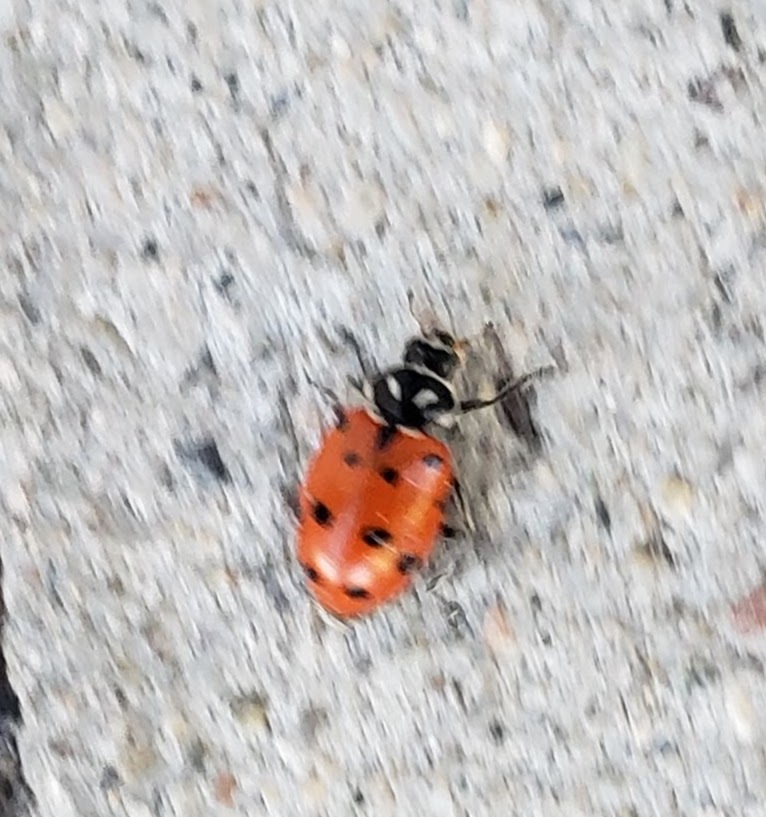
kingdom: Animalia
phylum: Arthropoda
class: Insecta
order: Coleoptera
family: Coccinellidae
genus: Hippodamia
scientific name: Hippodamia convergens
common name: Convergent lady beetle
